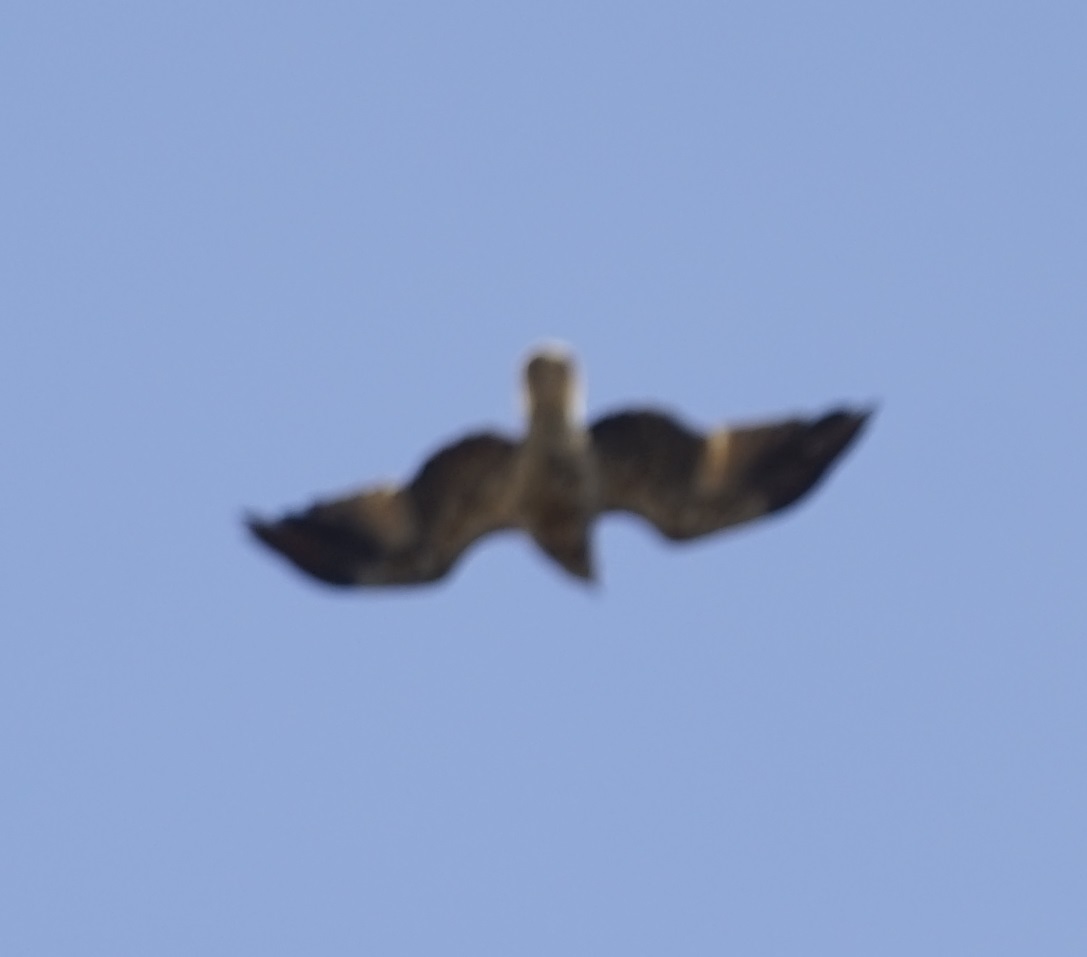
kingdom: Animalia
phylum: Chordata
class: Aves
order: Accipitriformes
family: Accipitridae
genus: Haliastur
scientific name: Haliastur sphenurus
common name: Whistling kite
